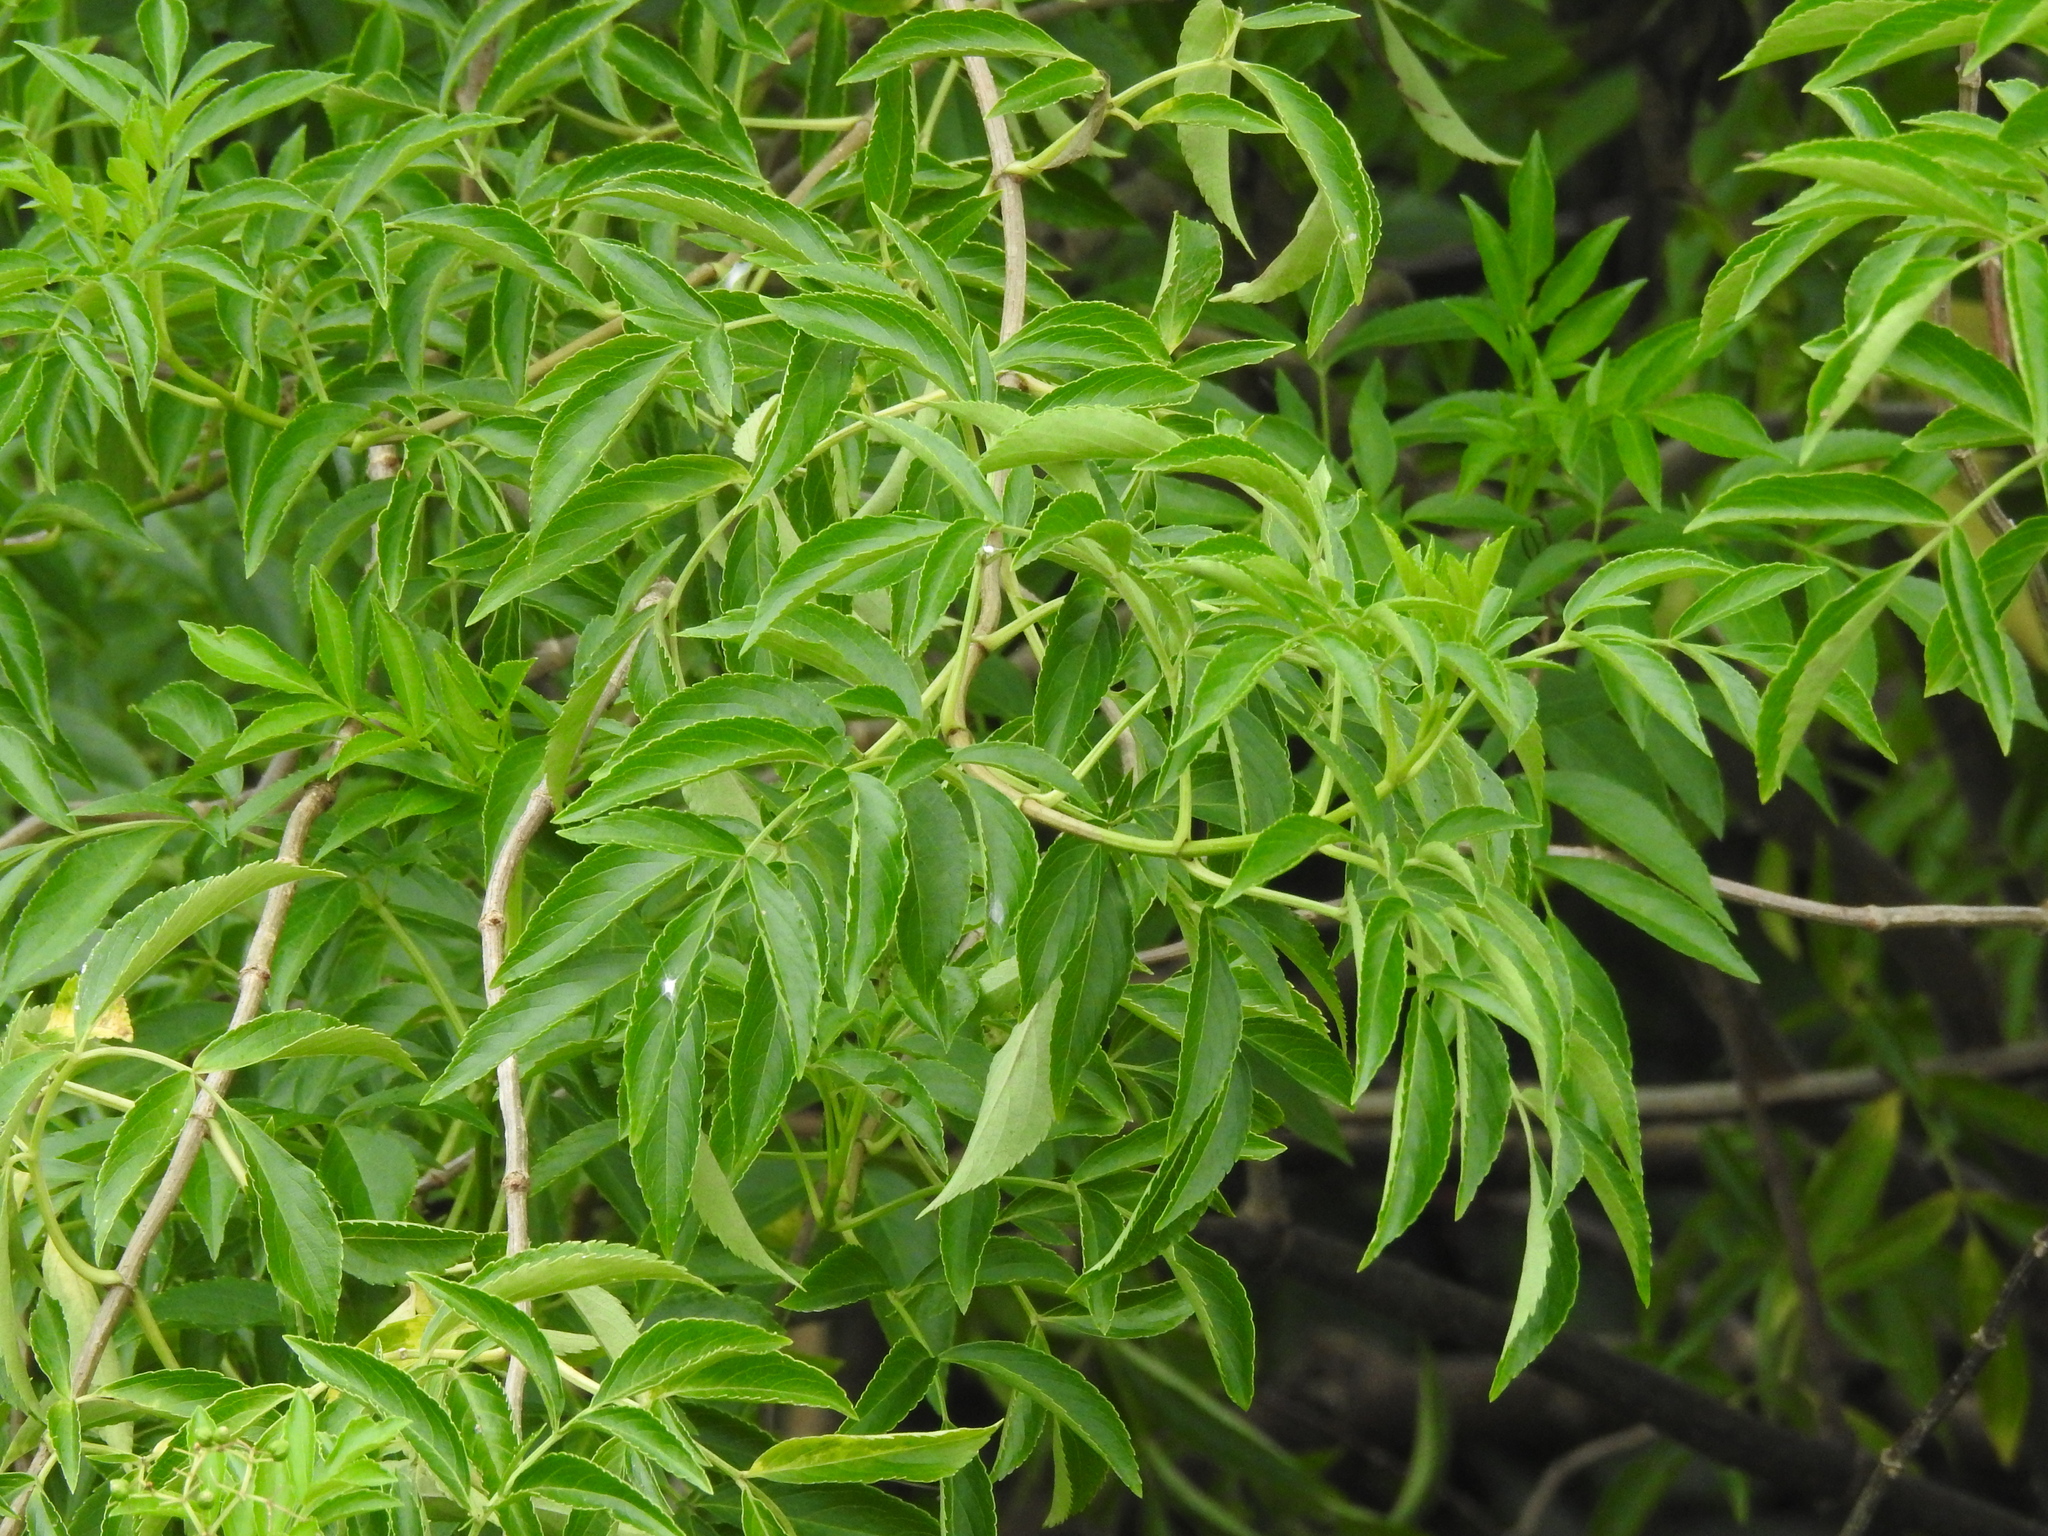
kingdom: Plantae
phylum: Tracheophyta
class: Magnoliopsida
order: Dipsacales
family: Viburnaceae
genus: Sambucus
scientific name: Sambucus canadensis
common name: American elder
